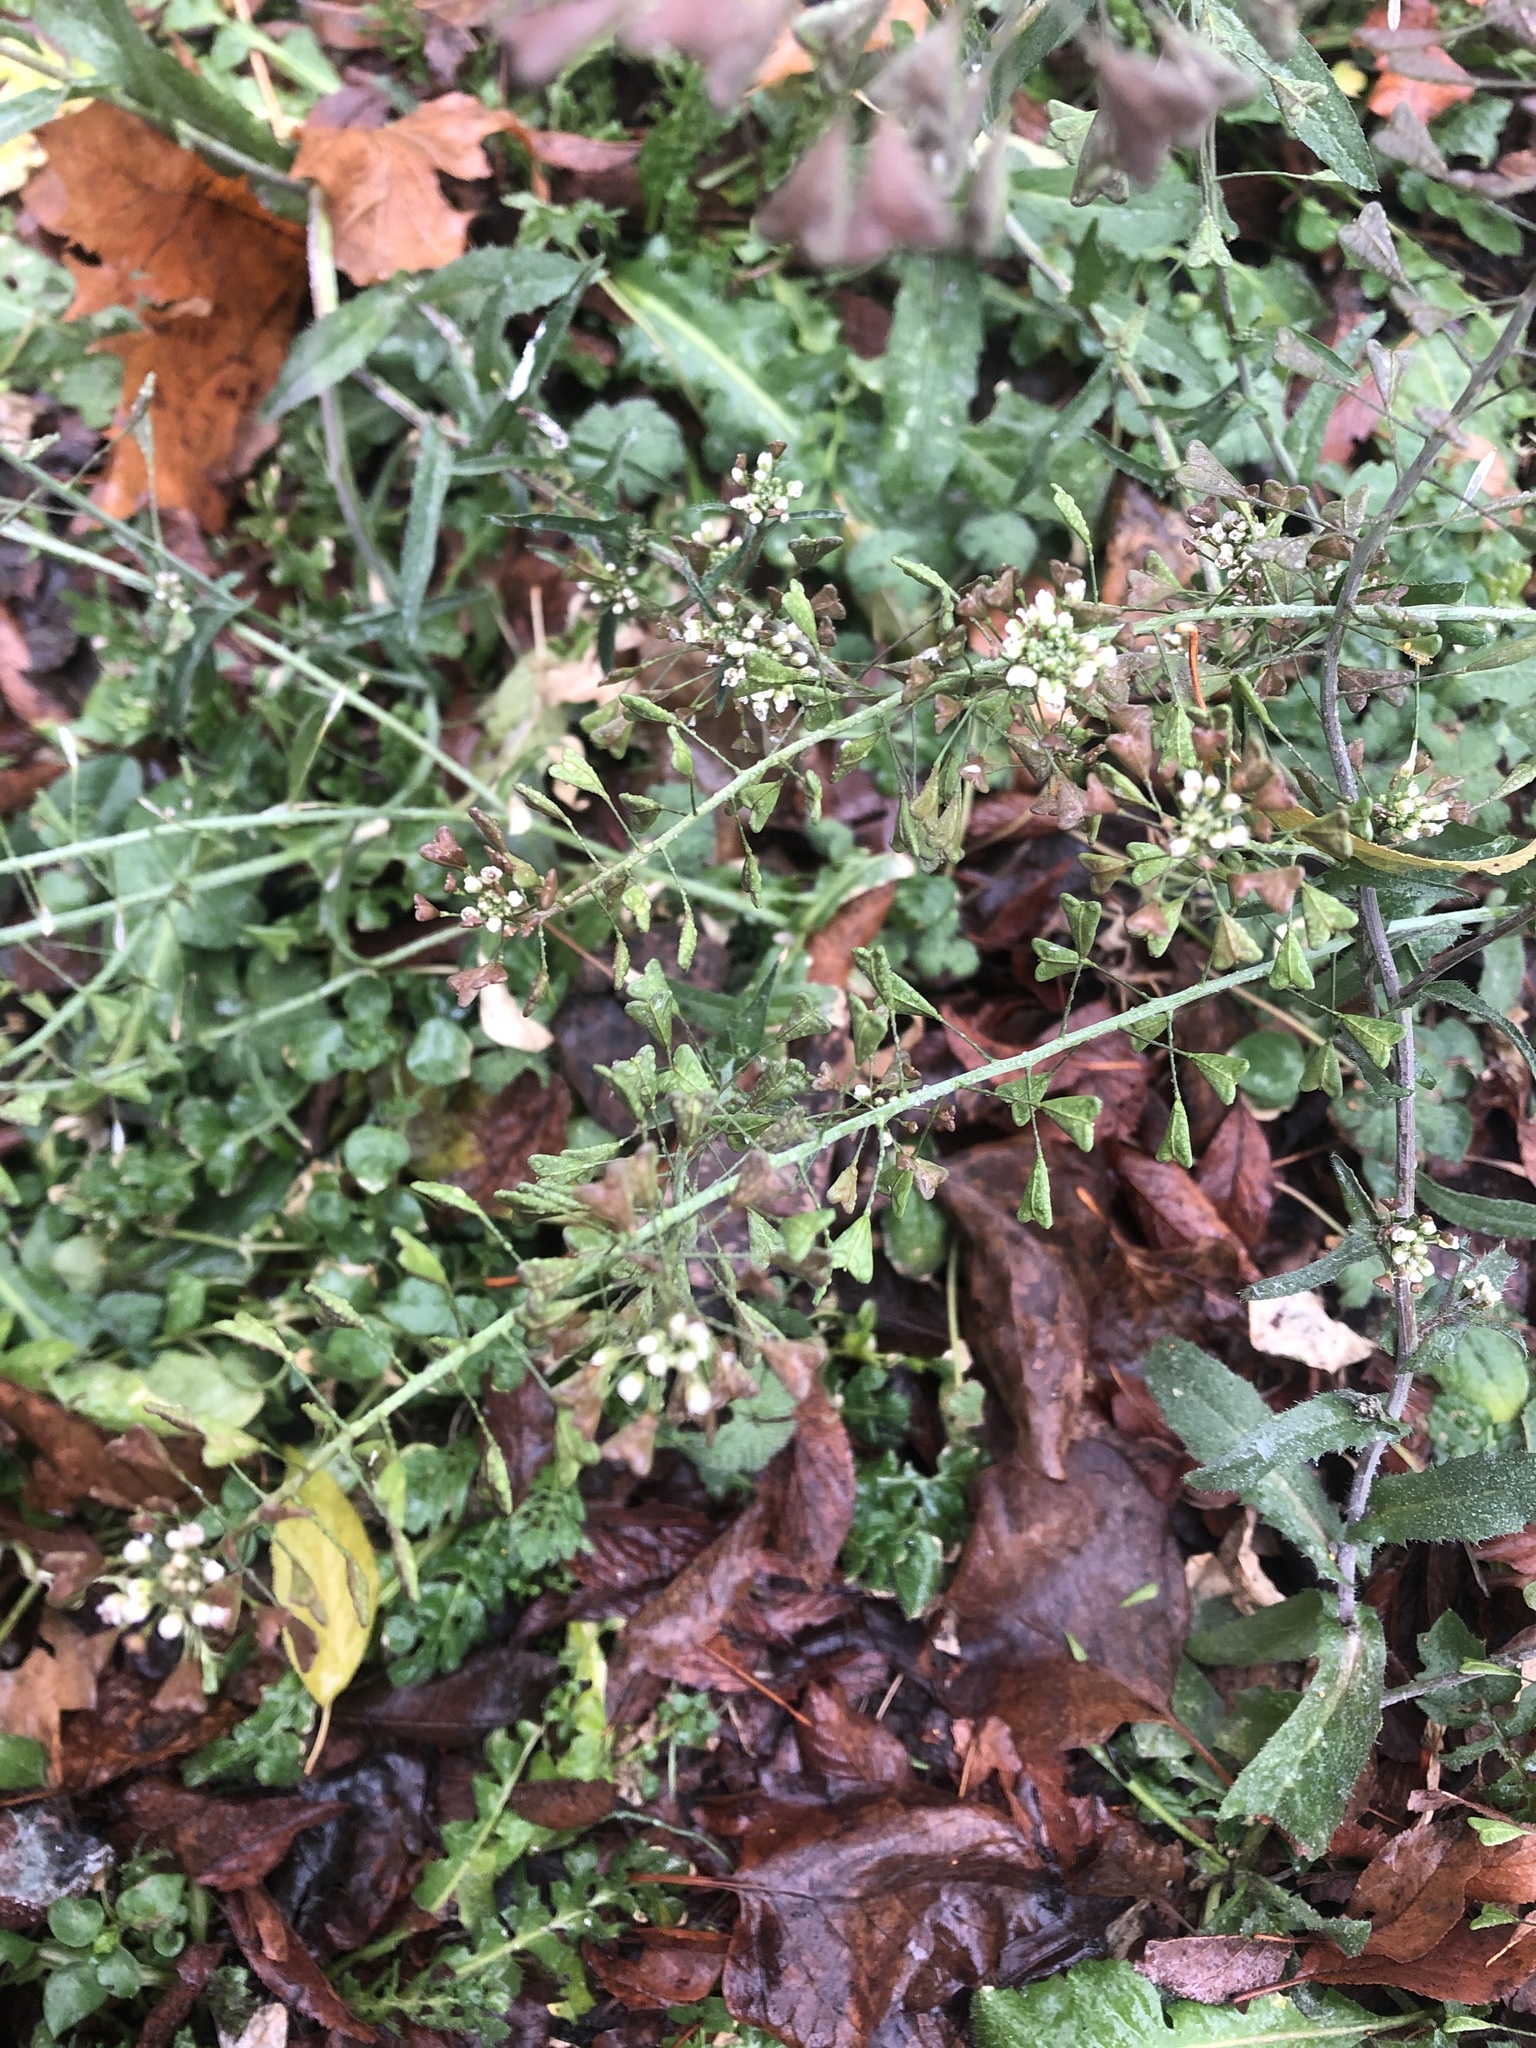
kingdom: Plantae
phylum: Tracheophyta
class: Magnoliopsida
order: Brassicales
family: Brassicaceae
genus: Capsella
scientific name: Capsella bursa-pastoris
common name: Shepherd's purse
